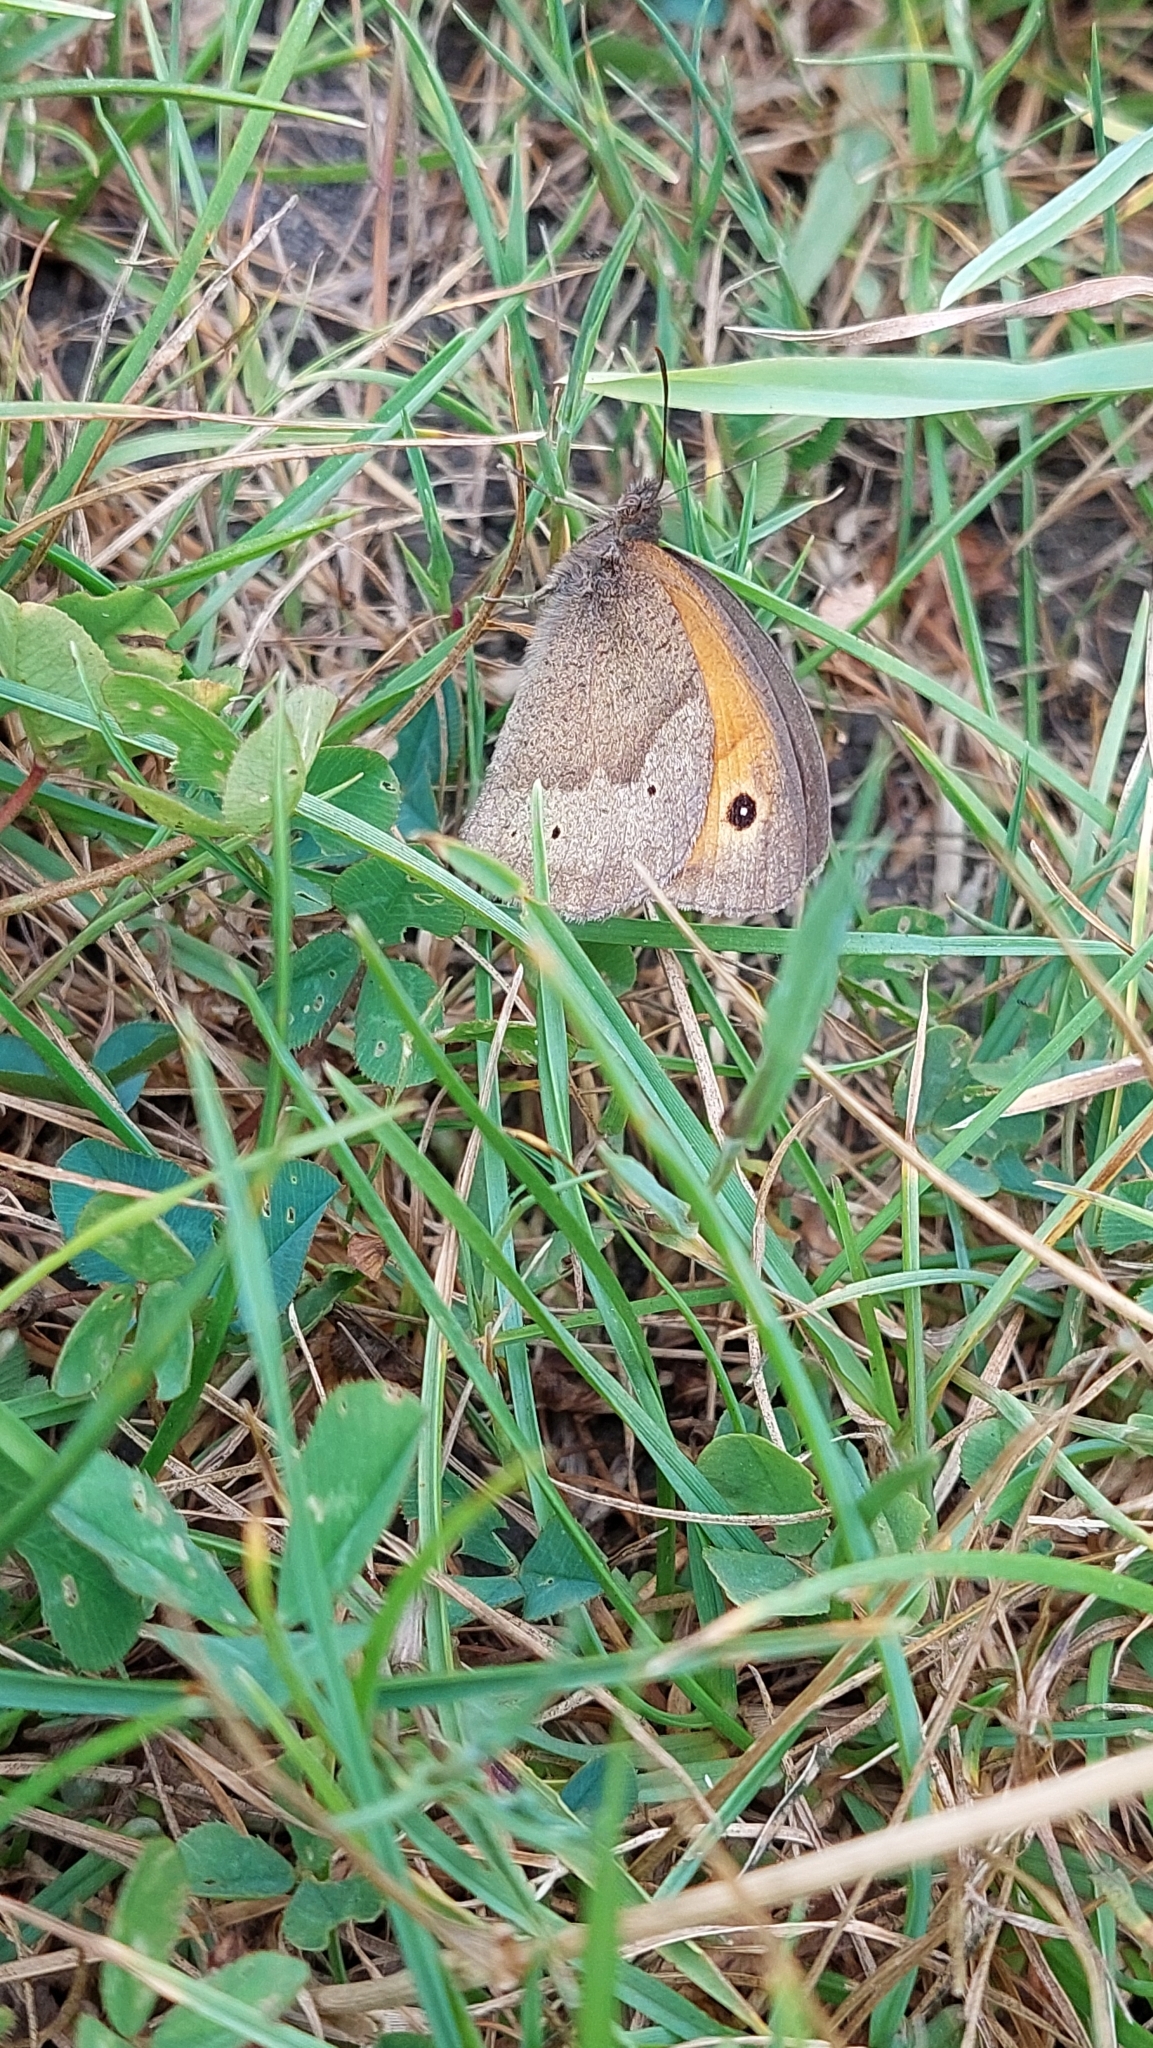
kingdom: Animalia
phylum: Arthropoda
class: Insecta
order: Lepidoptera
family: Nymphalidae
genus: Maniola
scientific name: Maniola jurtina
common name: Meadow brown
